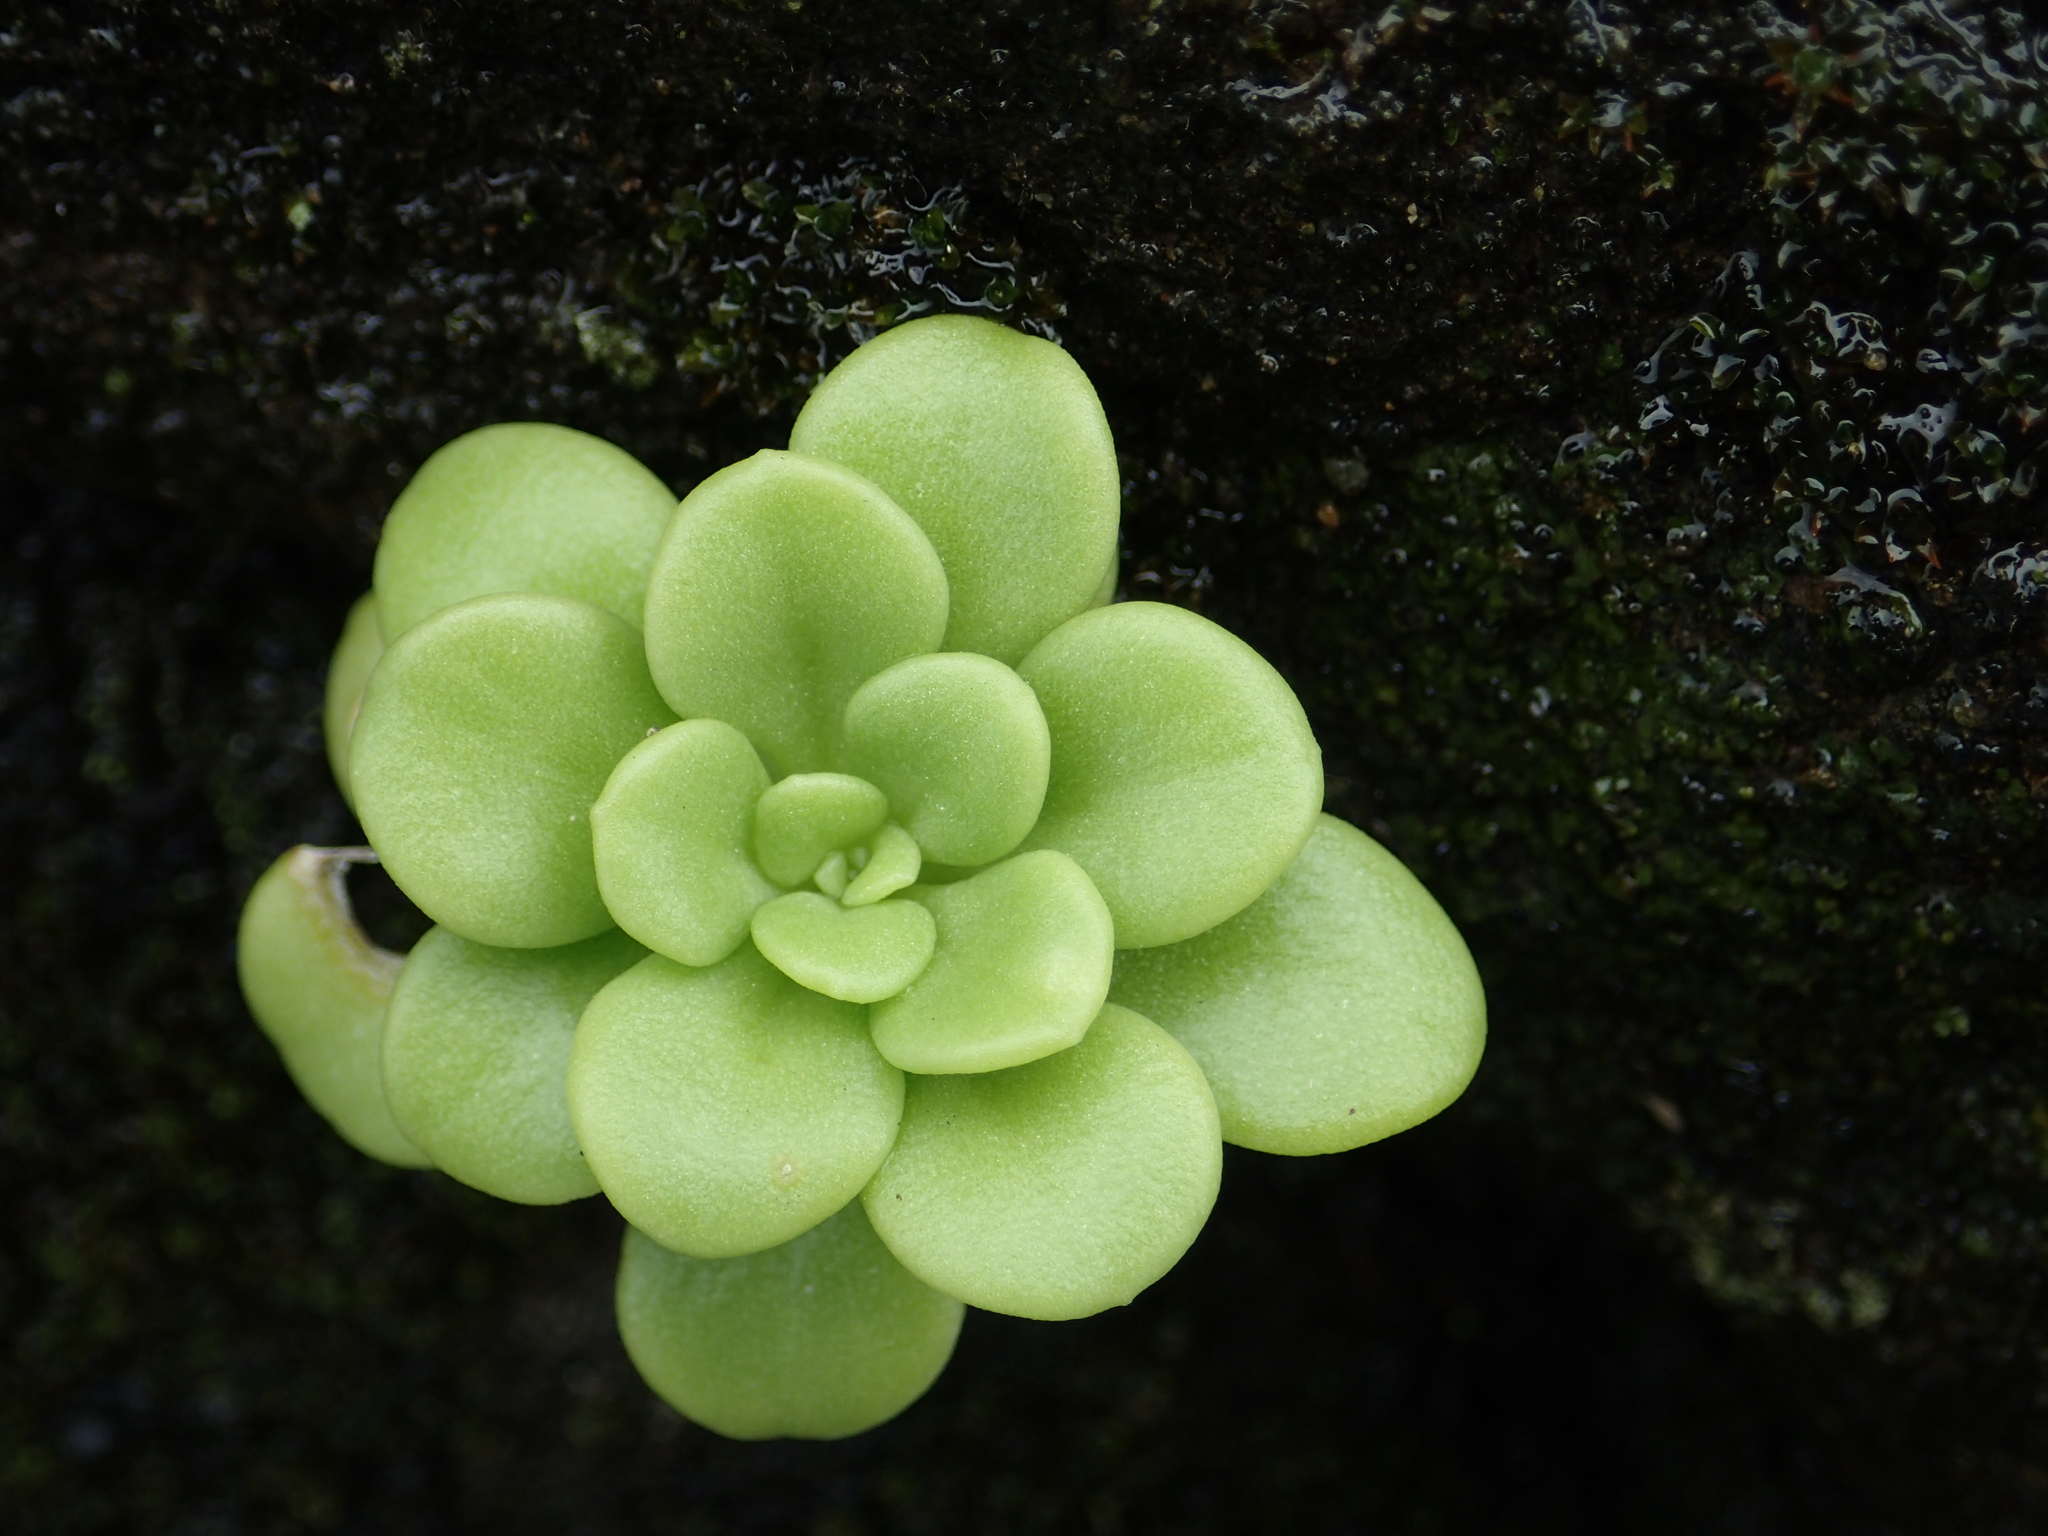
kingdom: Plantae
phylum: Tracheophyta
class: Magnoliopsida
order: Saxifragales
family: Crassulaceae
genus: Sedum
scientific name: Sedum formosanum
